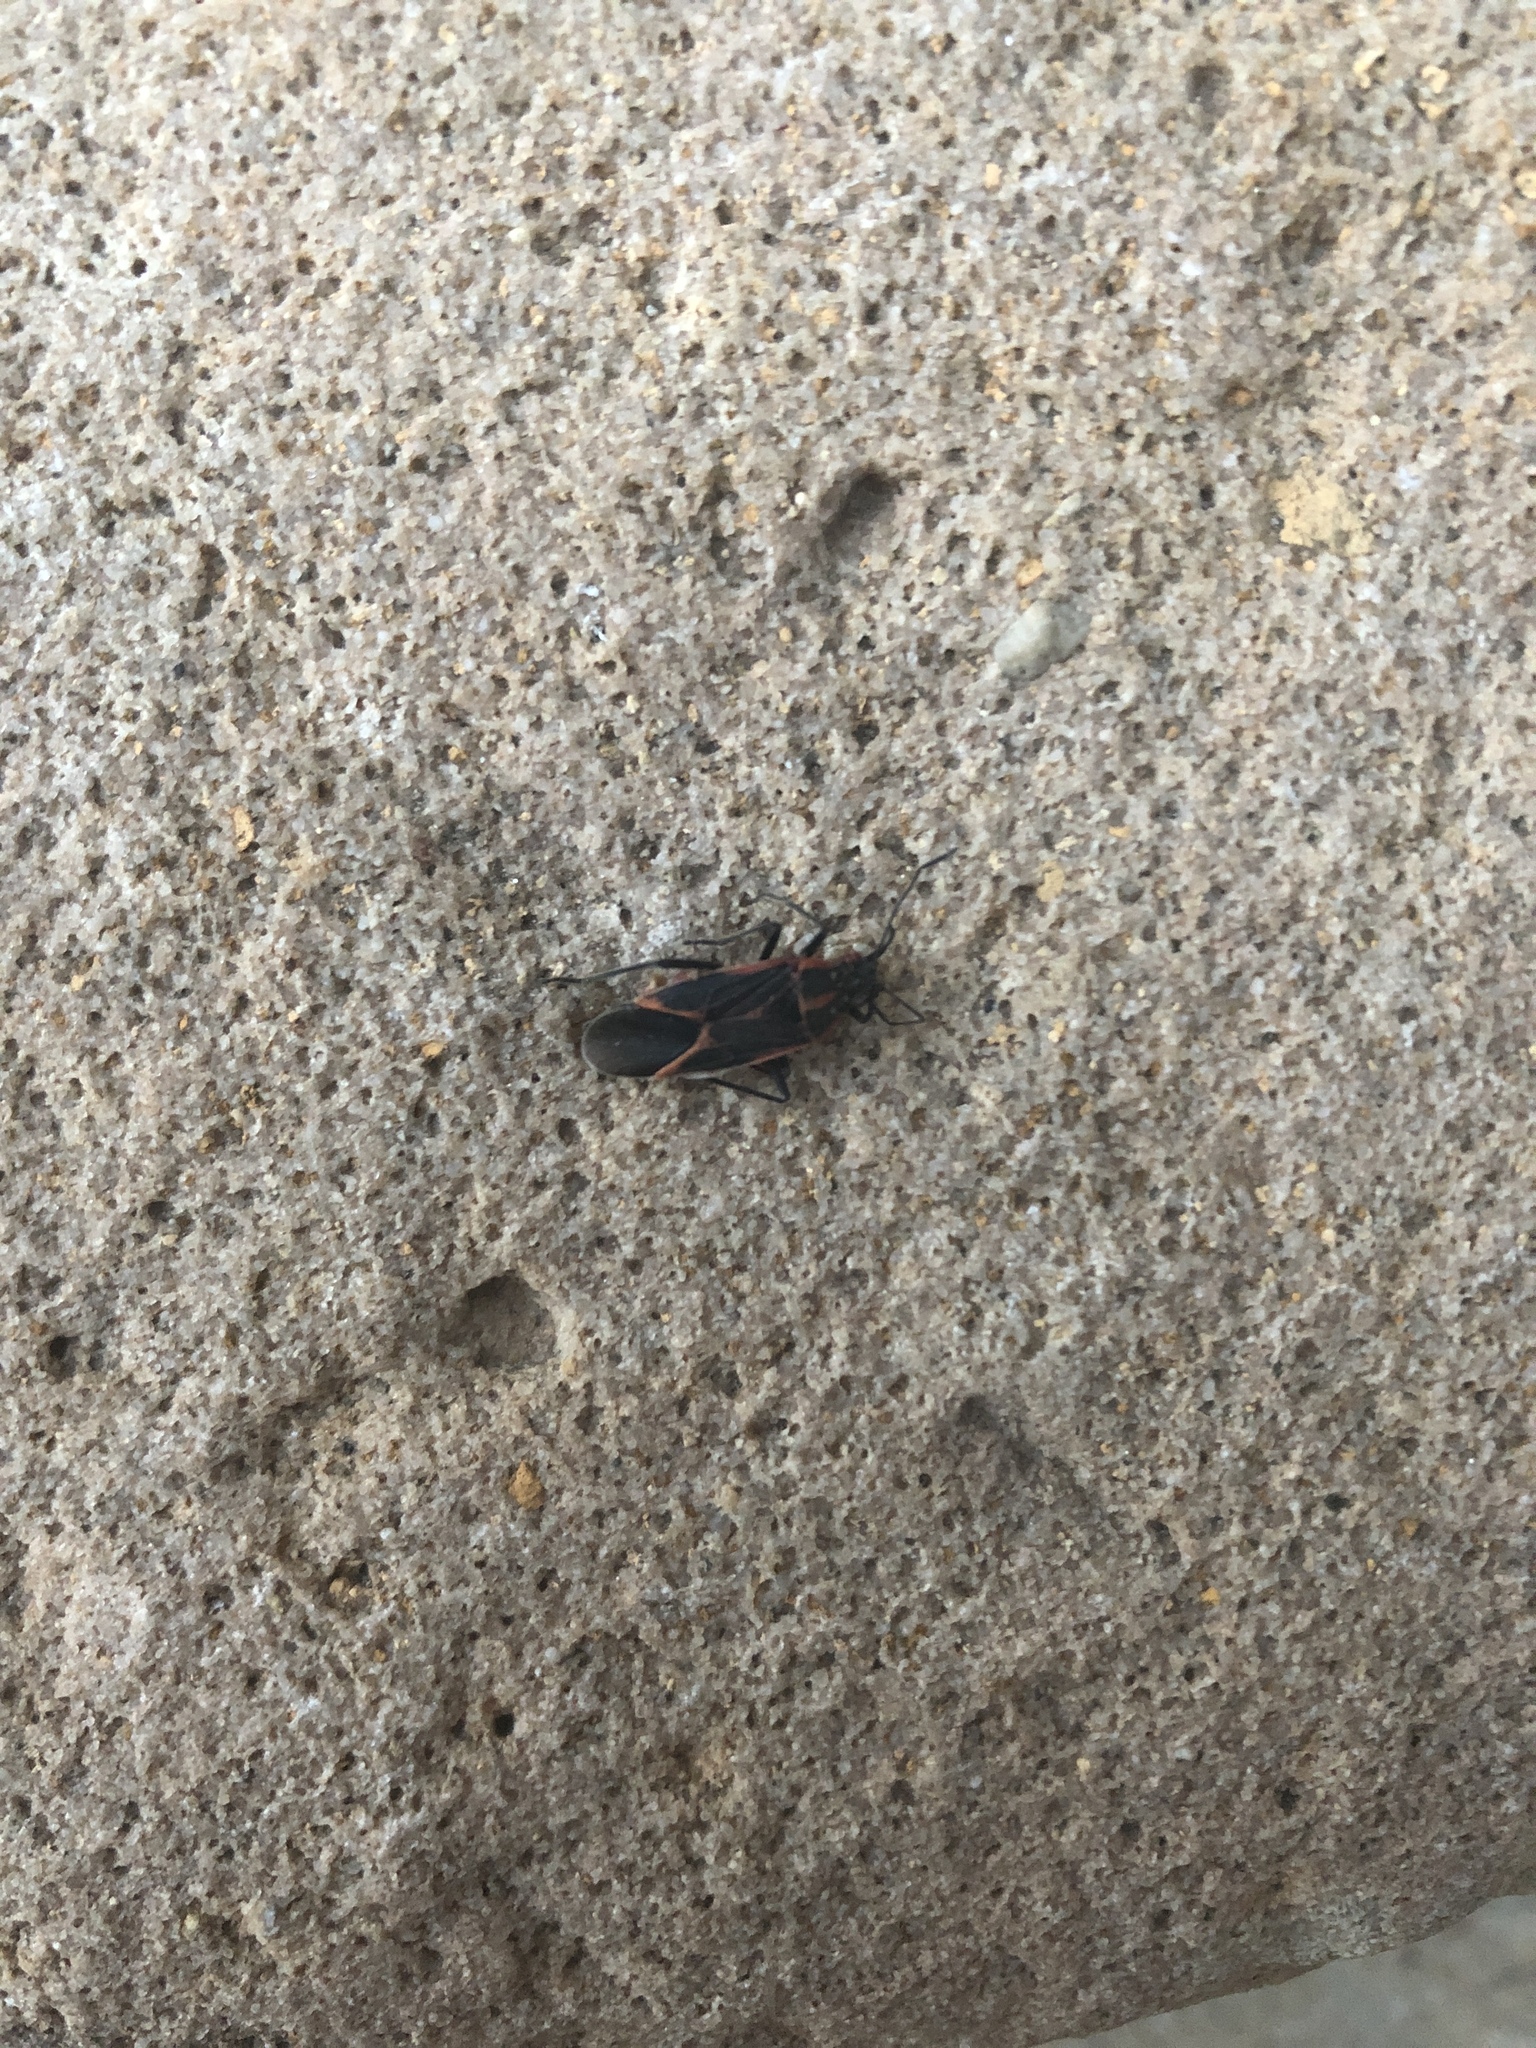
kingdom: Animalia
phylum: Arthropoda
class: Insecta
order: Hemiptera
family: Rhopalidae
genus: Boisea
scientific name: Boisea trivittata
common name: Boxelder bug
